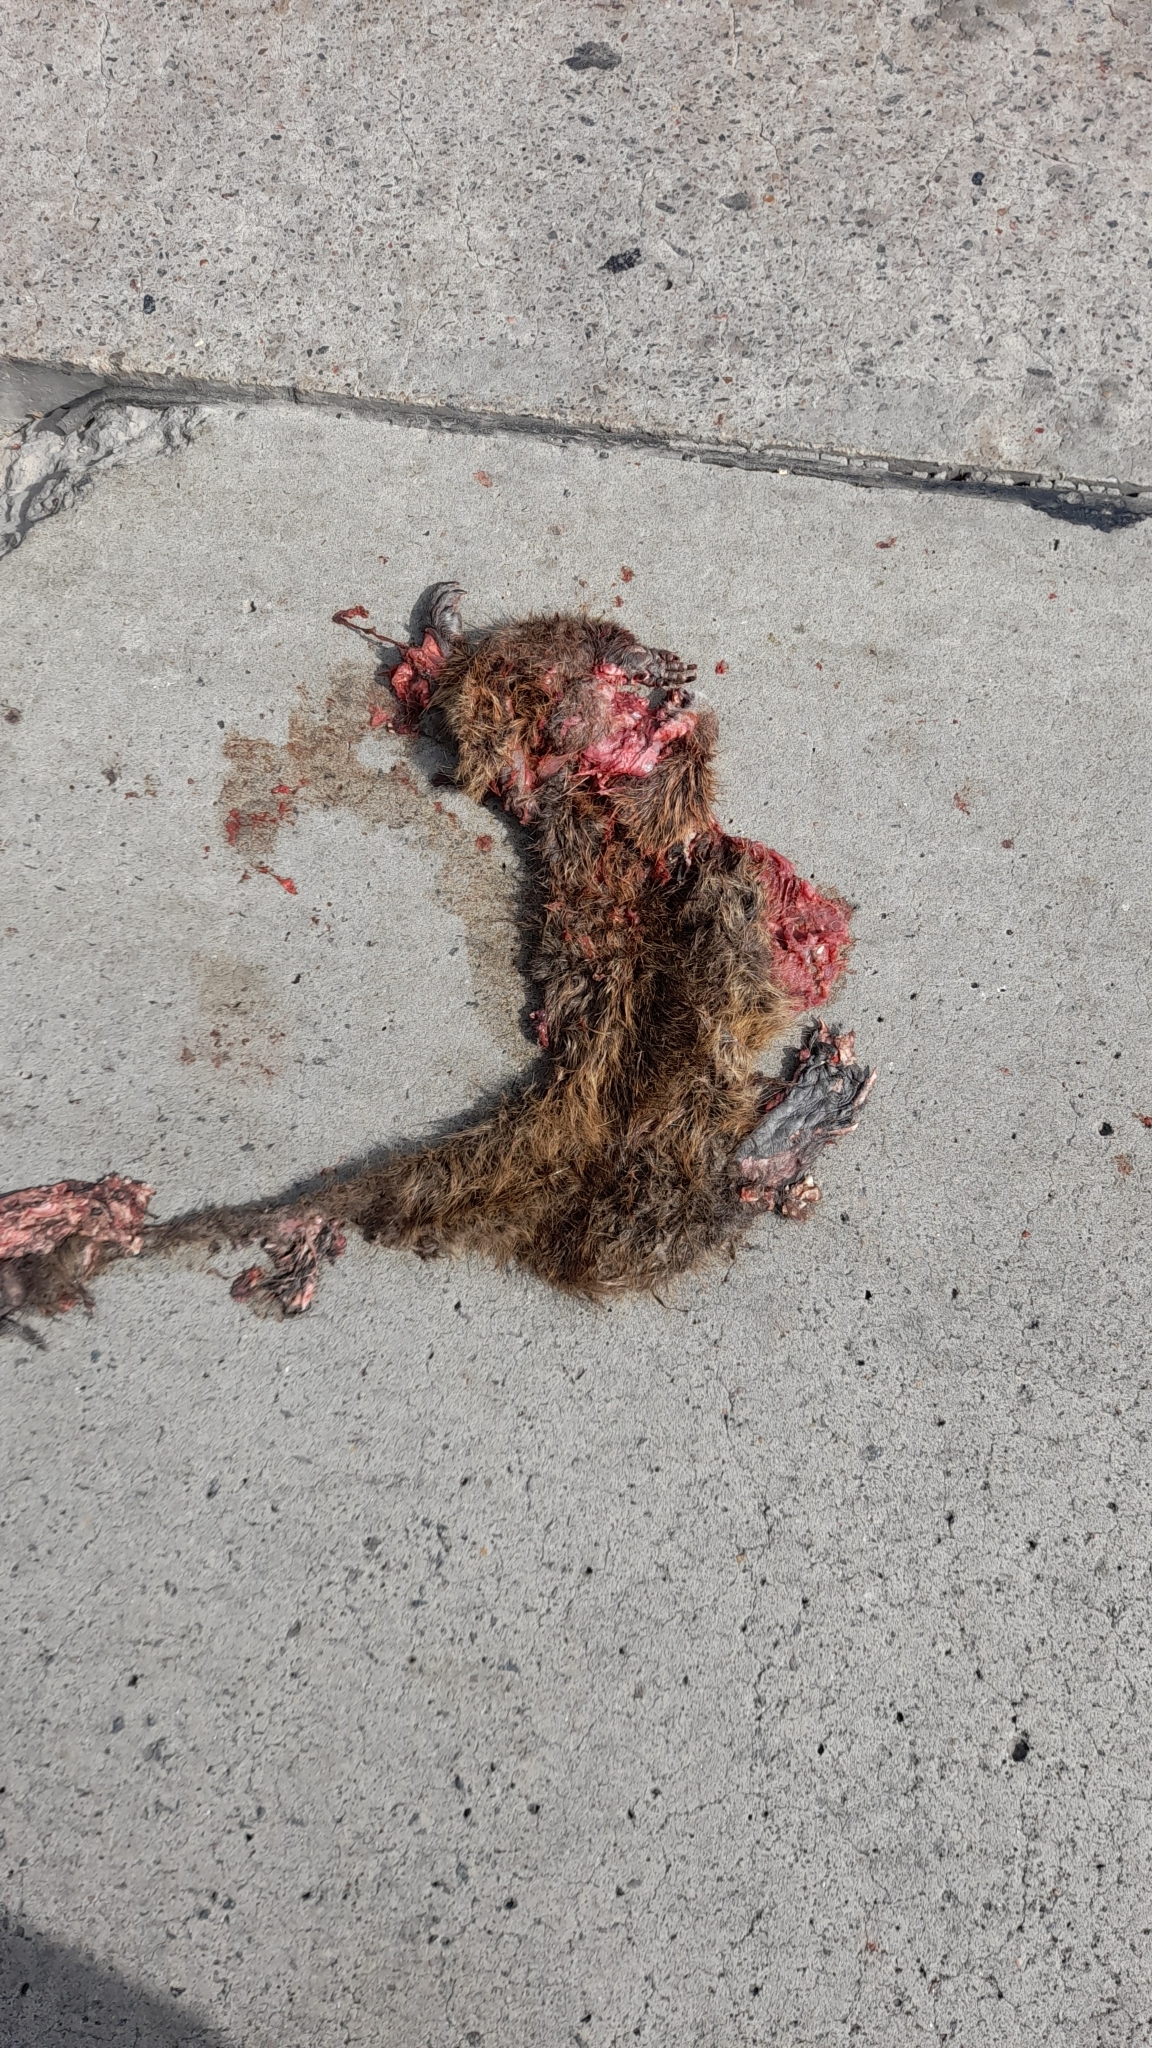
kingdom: Animalia
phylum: Chordata
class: Mammalia
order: Rodentia
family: Myocastoridae
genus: Myocastor
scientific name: Myocastor coypus
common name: Coypu
